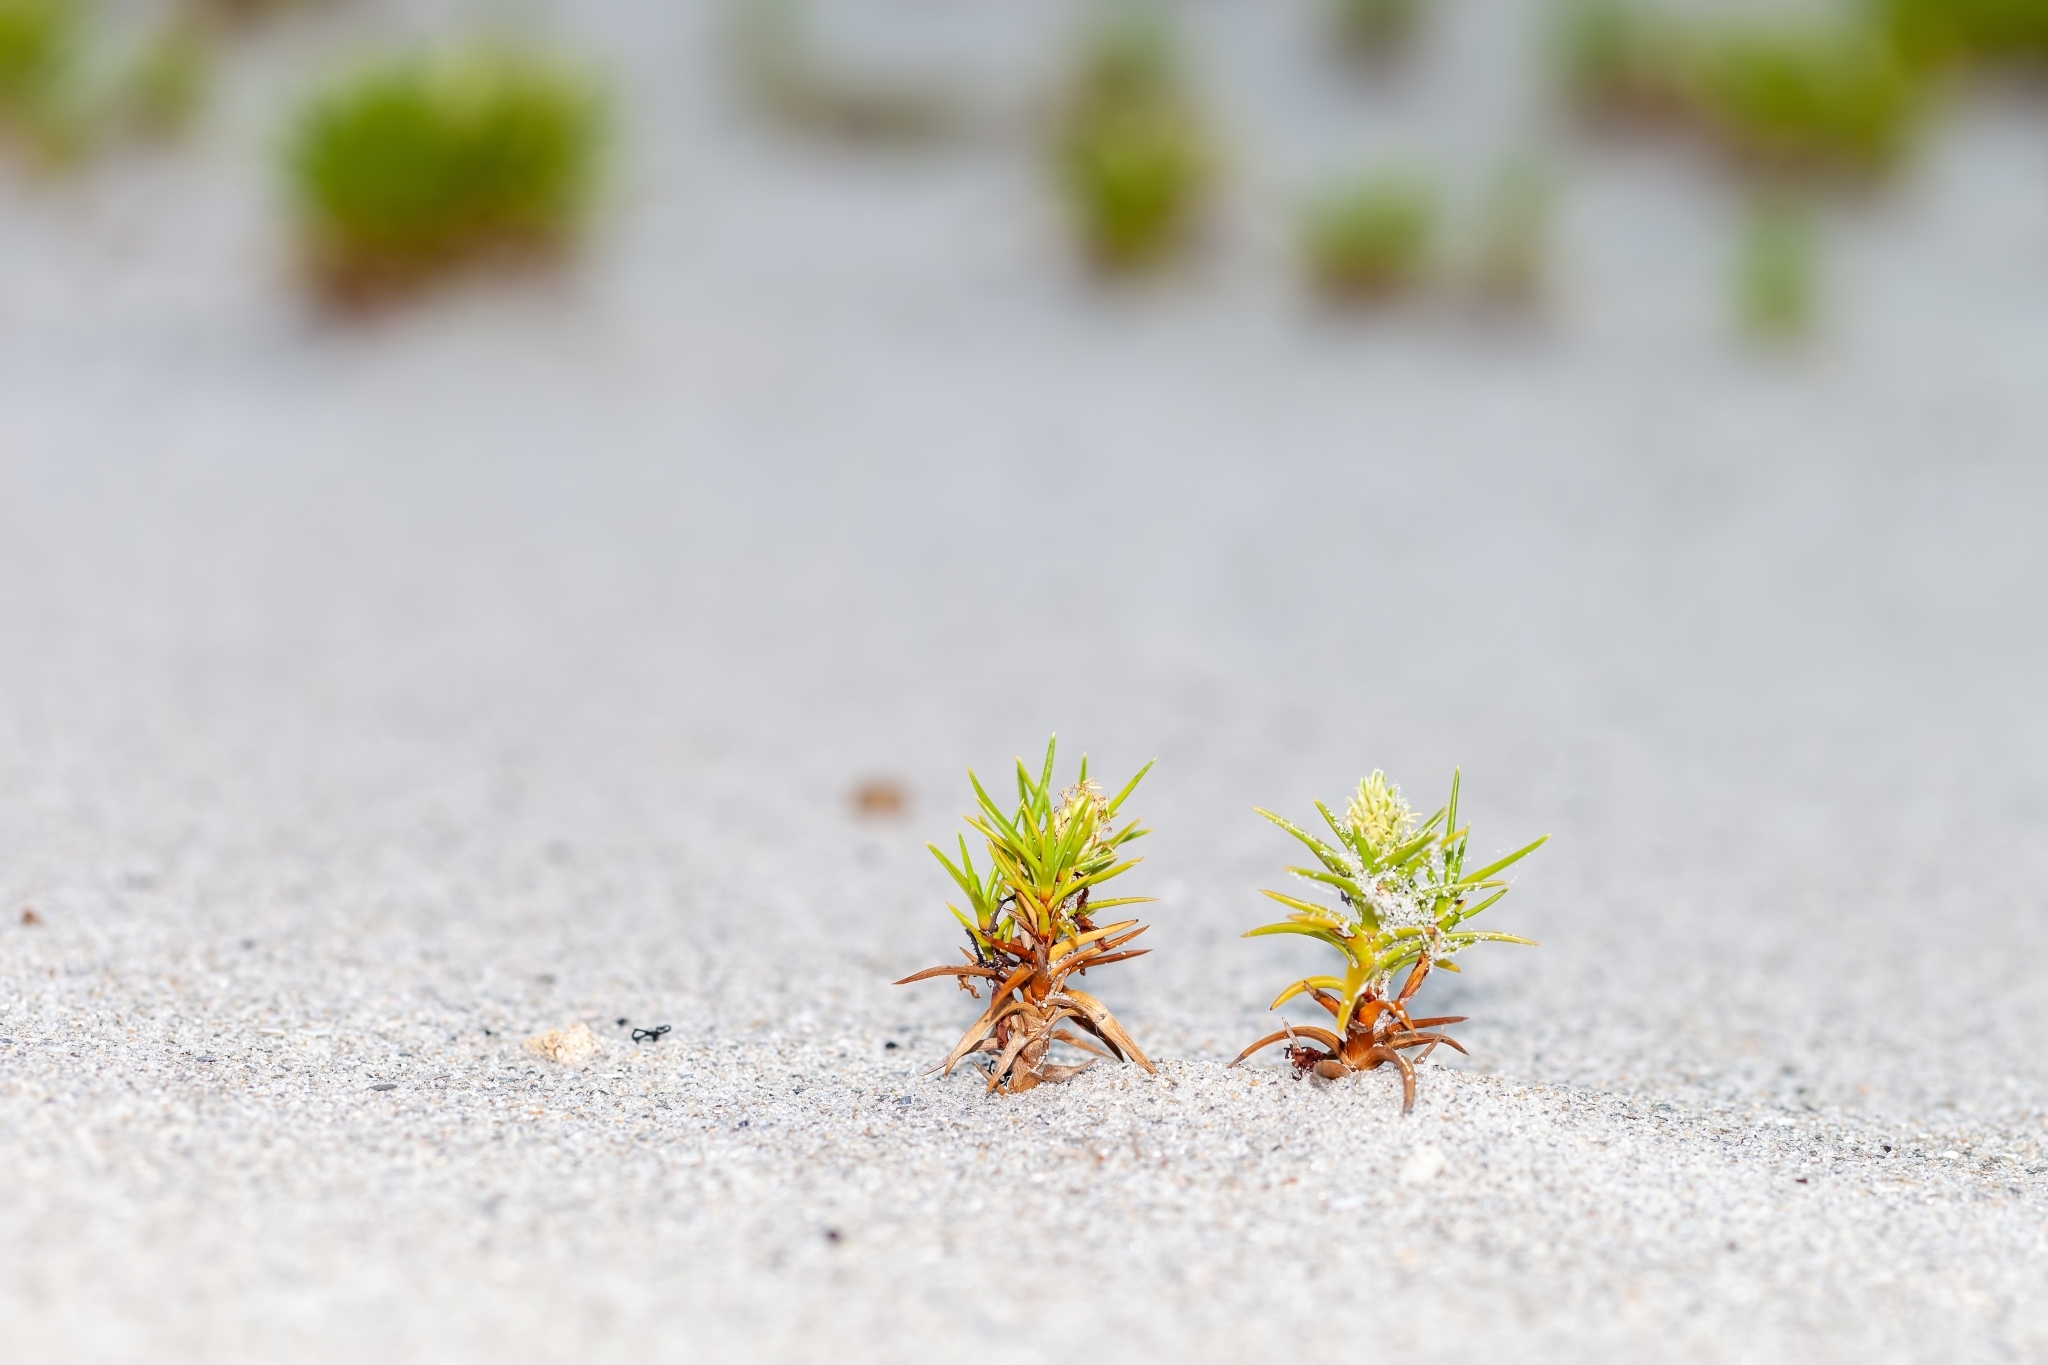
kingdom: Plantae
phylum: Tracheophyta
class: Liliopsida
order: Poales
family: Cyperaceae
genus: Cyperus
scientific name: Cyperus pedunculatus
